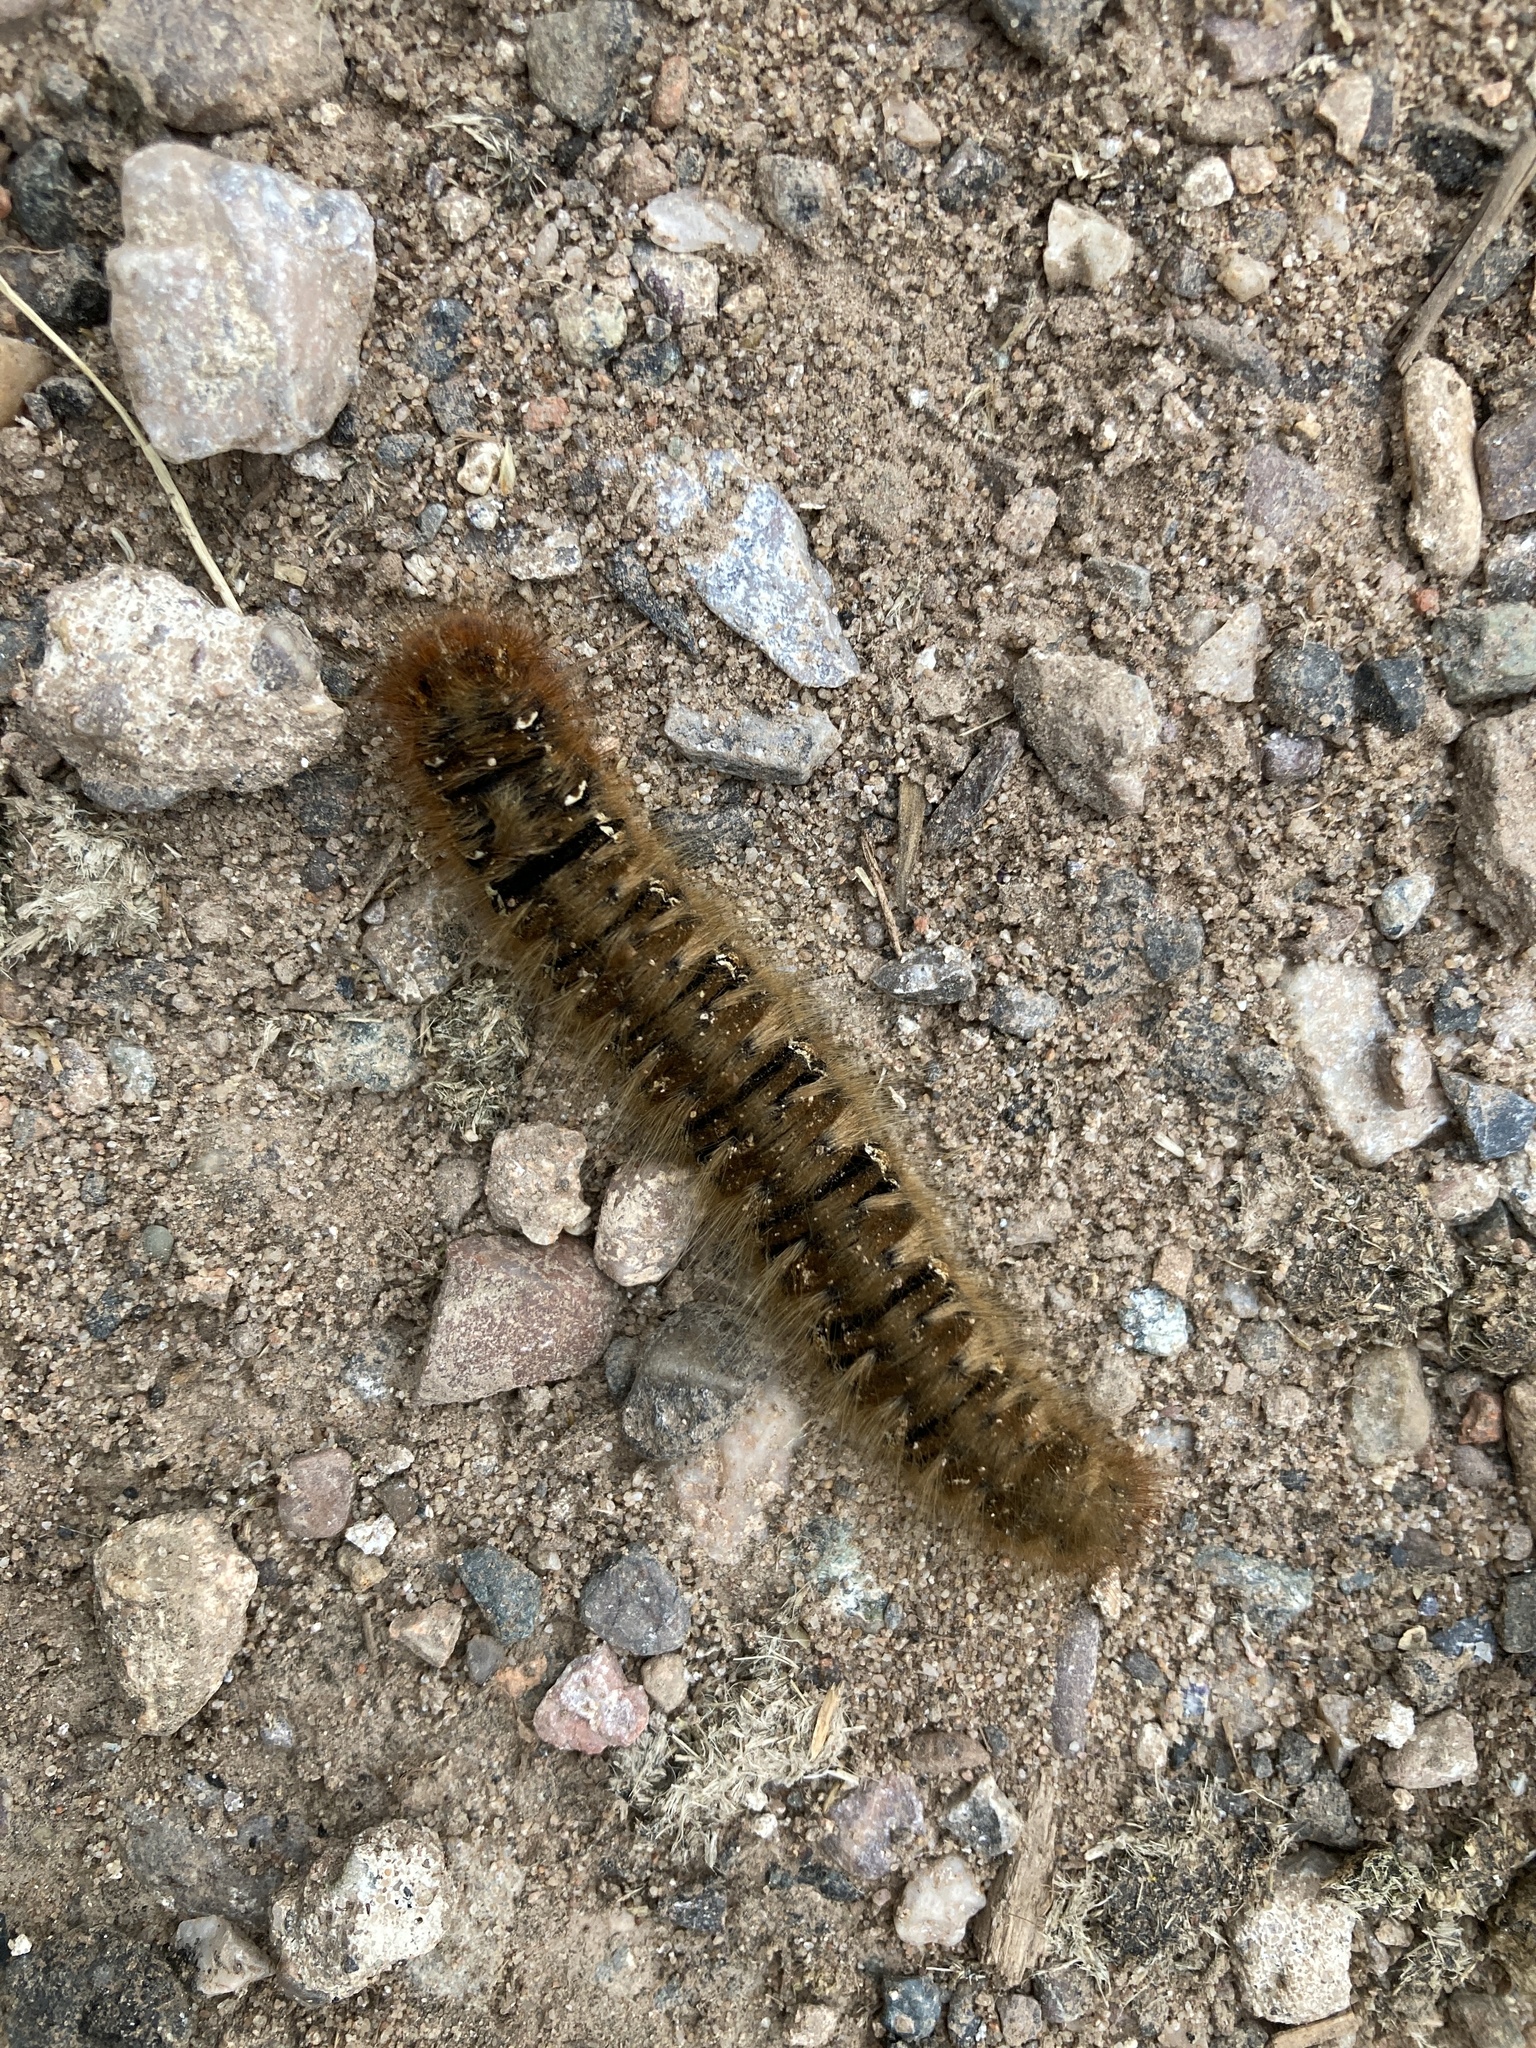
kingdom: Animalia
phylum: Arthropoda
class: Insecta
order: Lepidoptera
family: Lasiocampidae
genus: Lasiocampa
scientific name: Lasiocampa quercus
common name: Oak eggar
